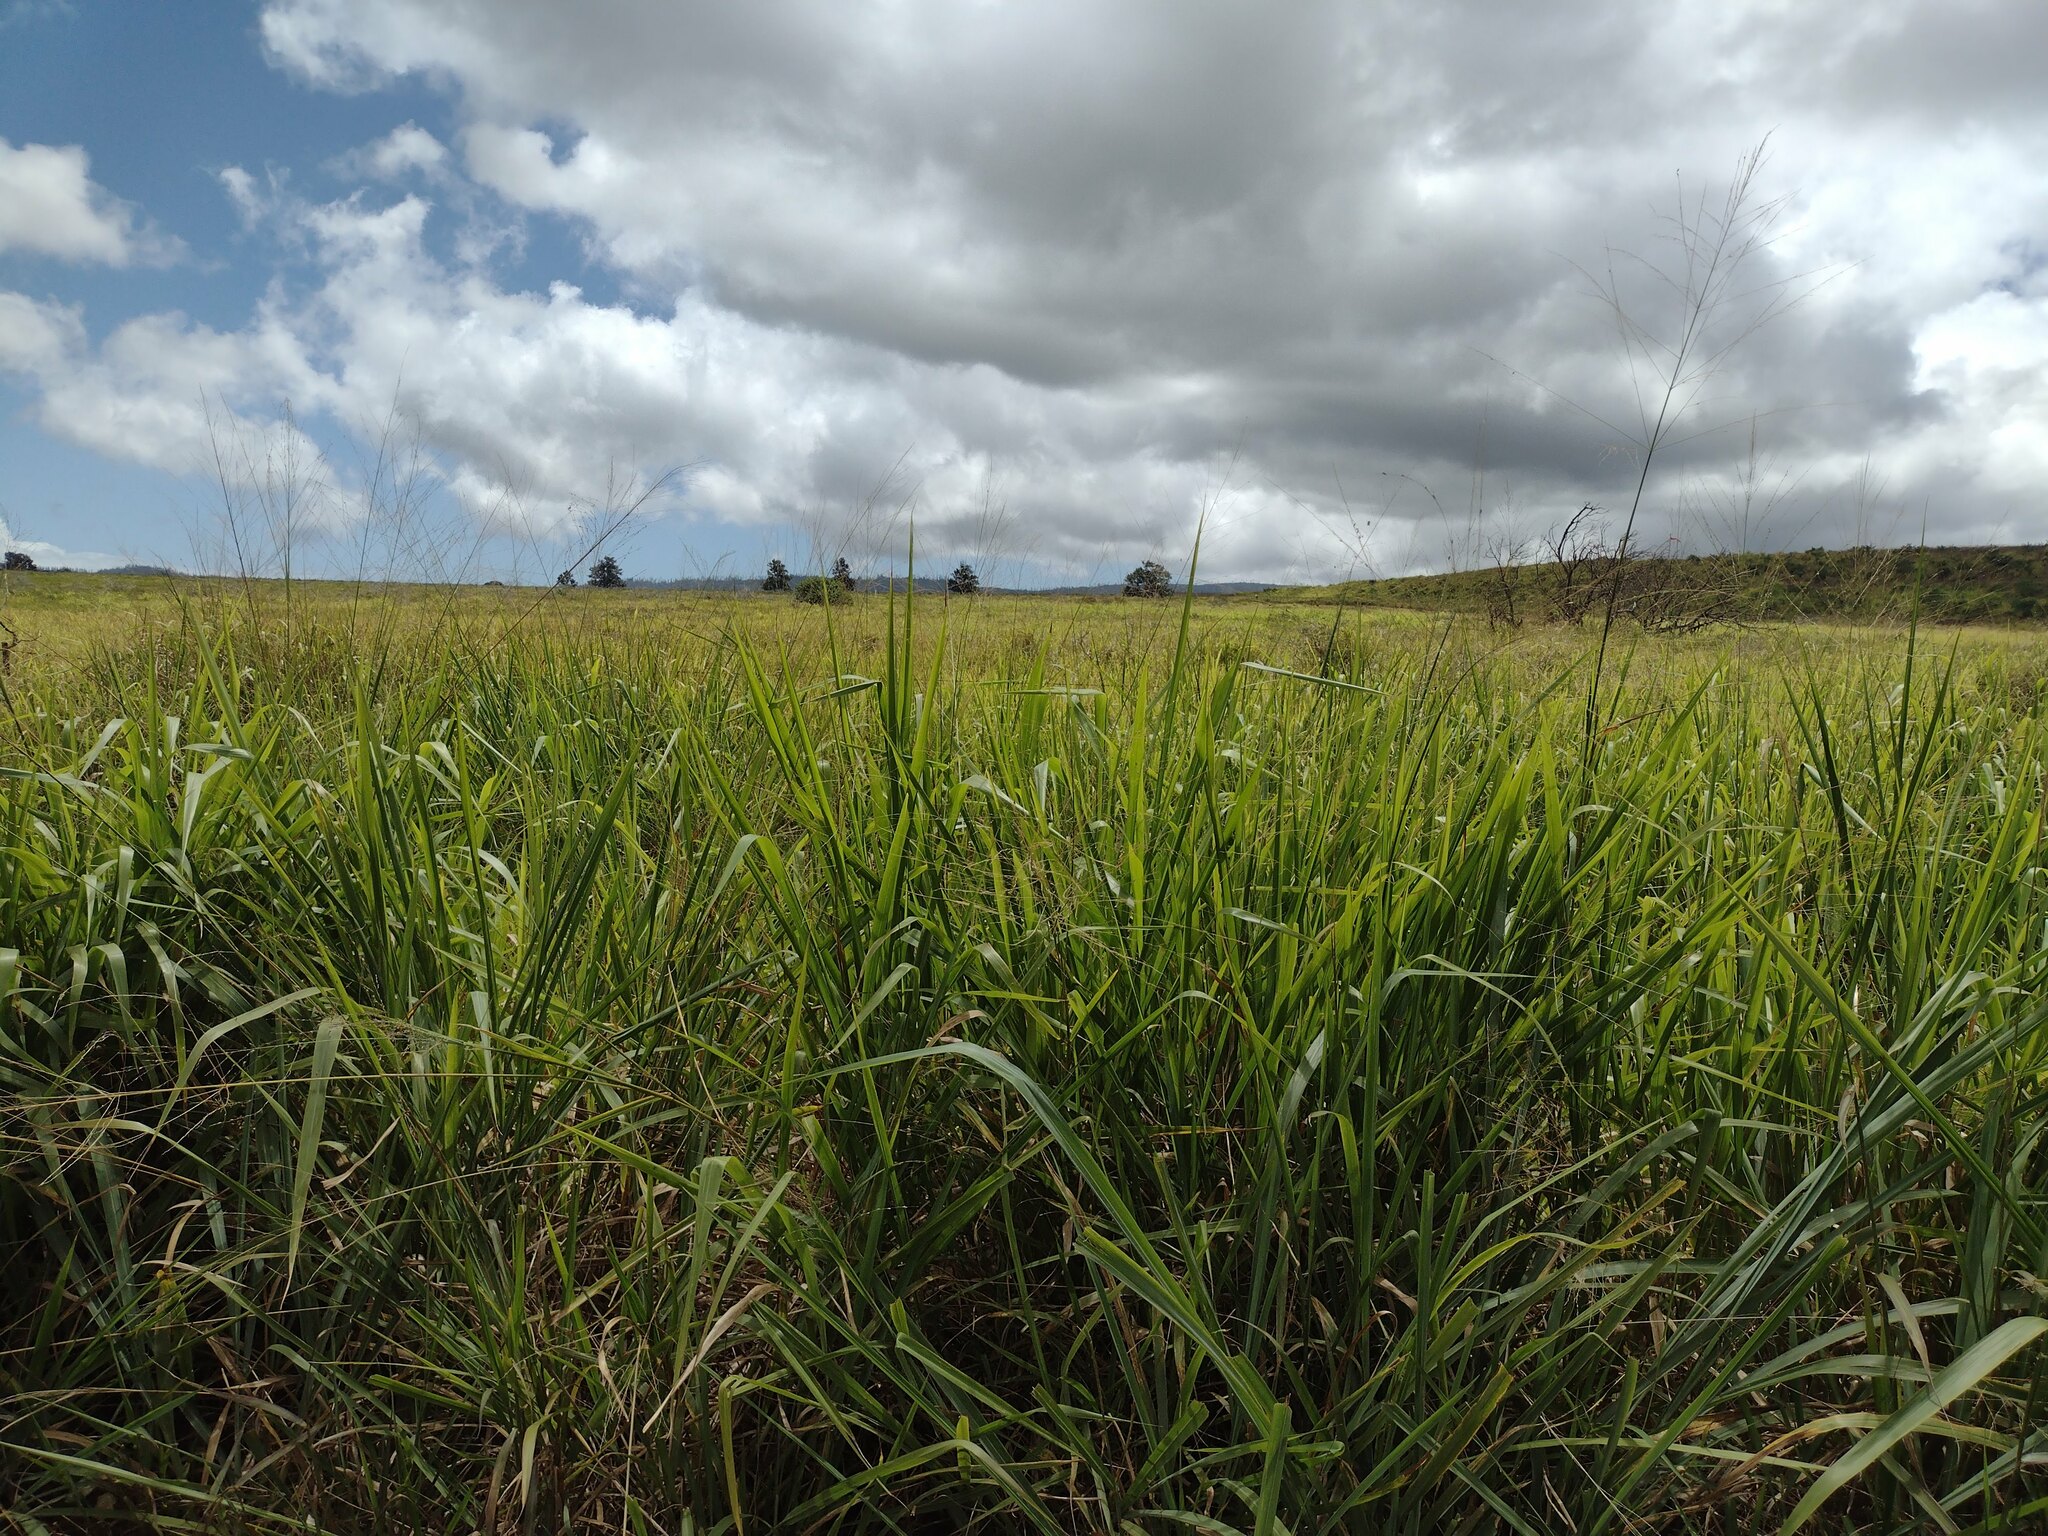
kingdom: Plantae
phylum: Tracheophyta
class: Liliopsida
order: Poales
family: Poaceae
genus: Megathyrsus
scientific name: Megathyrsus maximus
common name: Guineagrass
